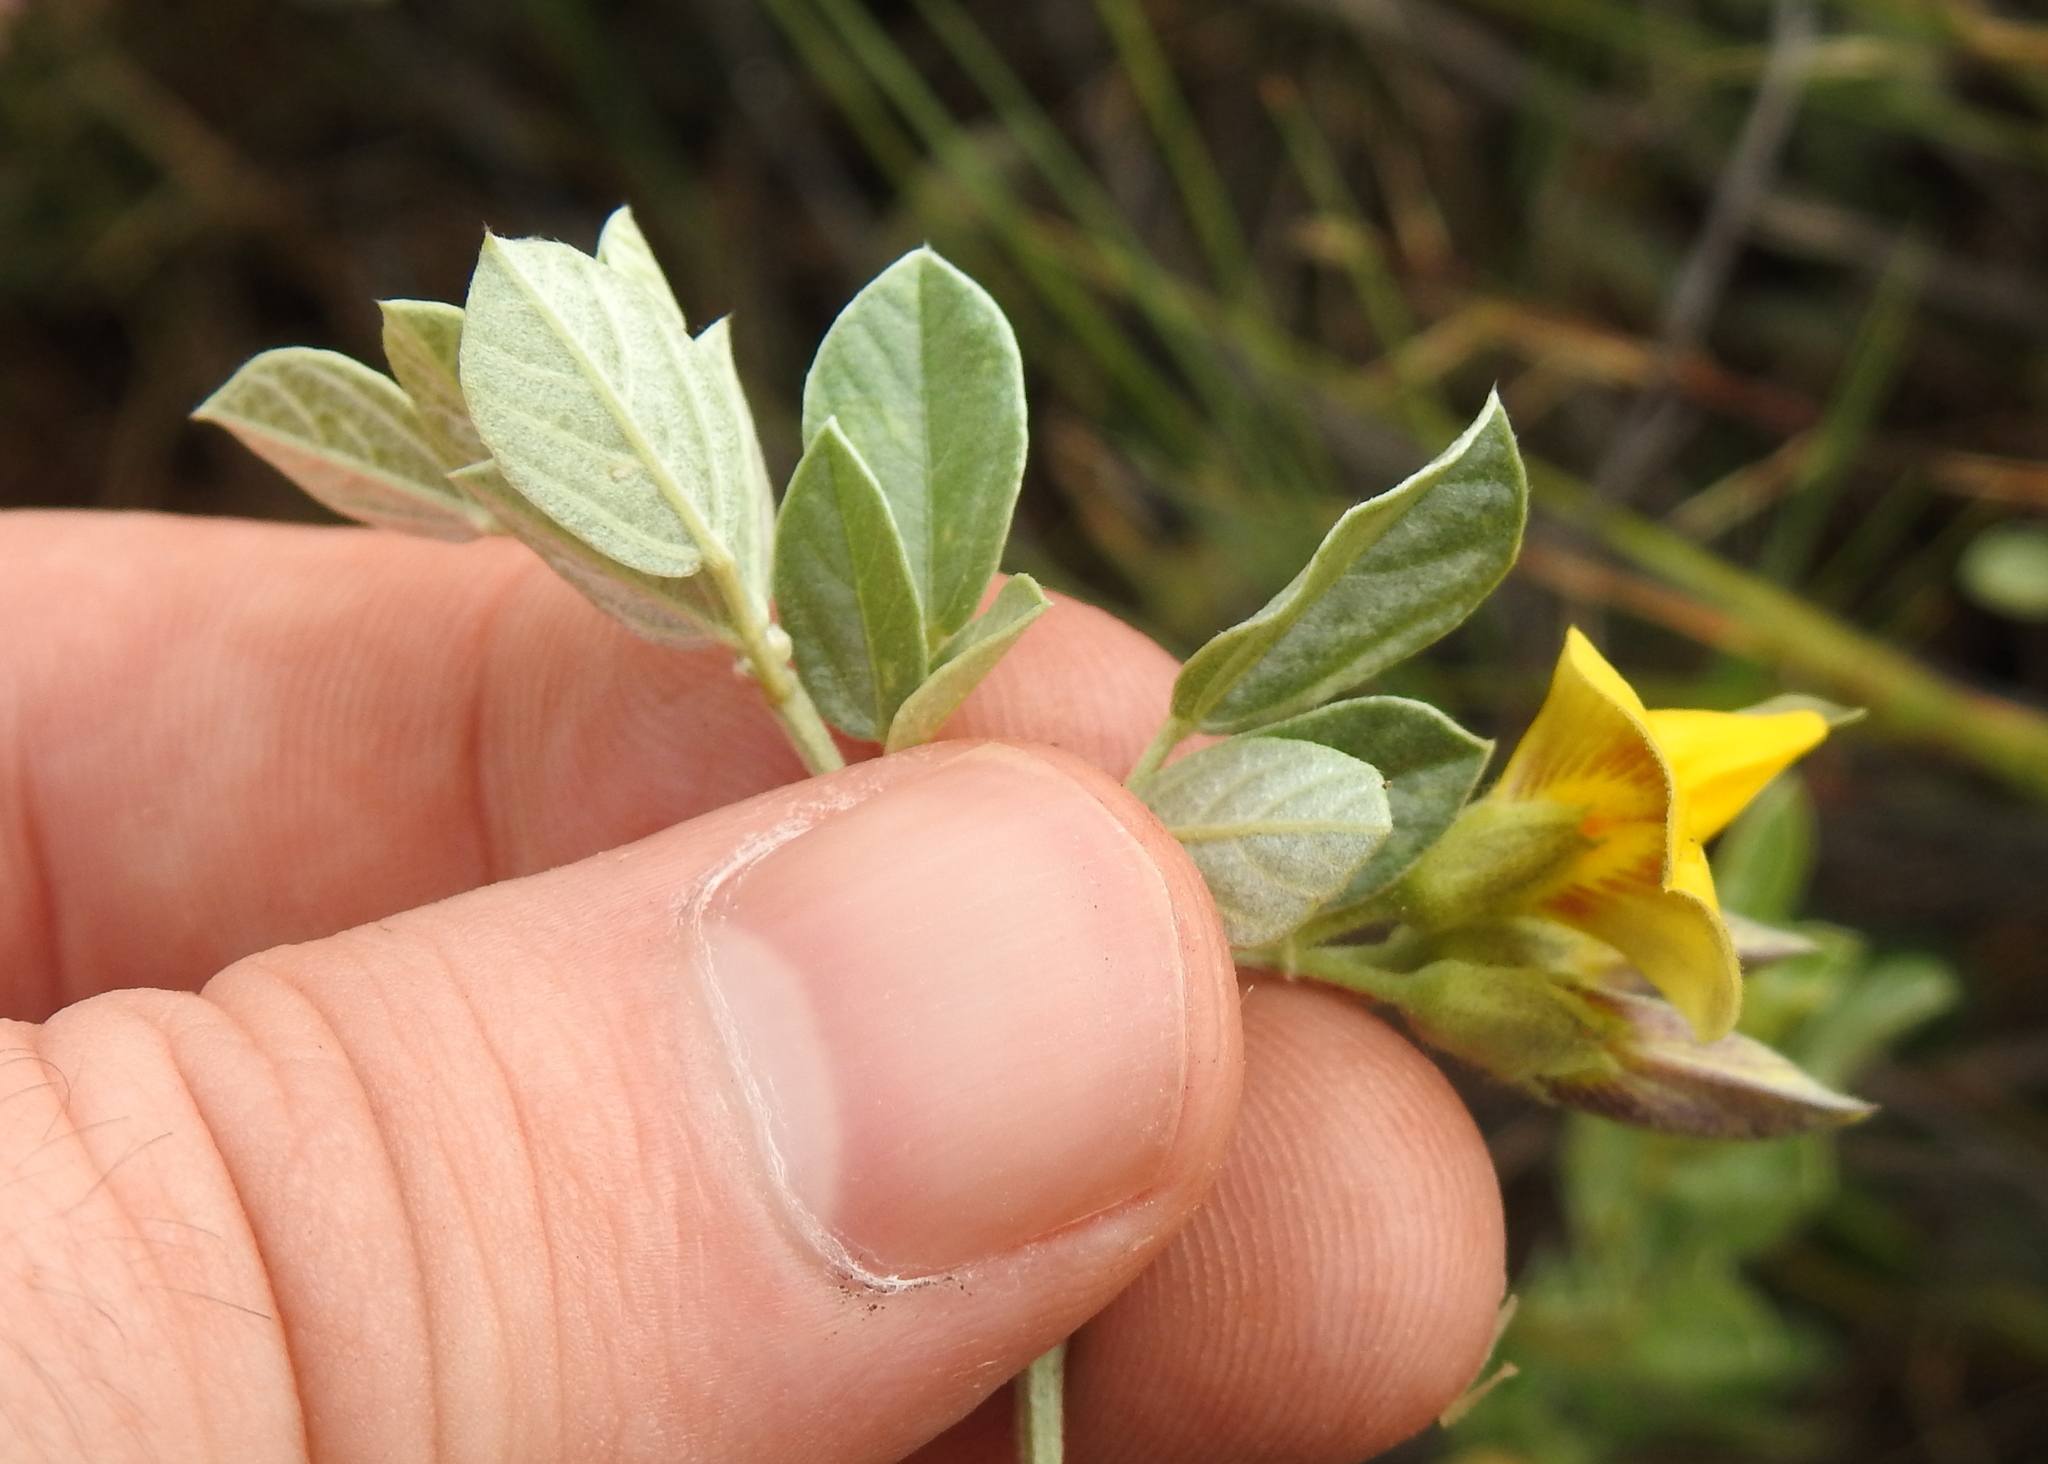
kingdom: Plantae
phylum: Tracheophyta
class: Magnoliopsida
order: Fabales
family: Fabaceae
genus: Rhynchosia
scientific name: Rhynchosia nitens
